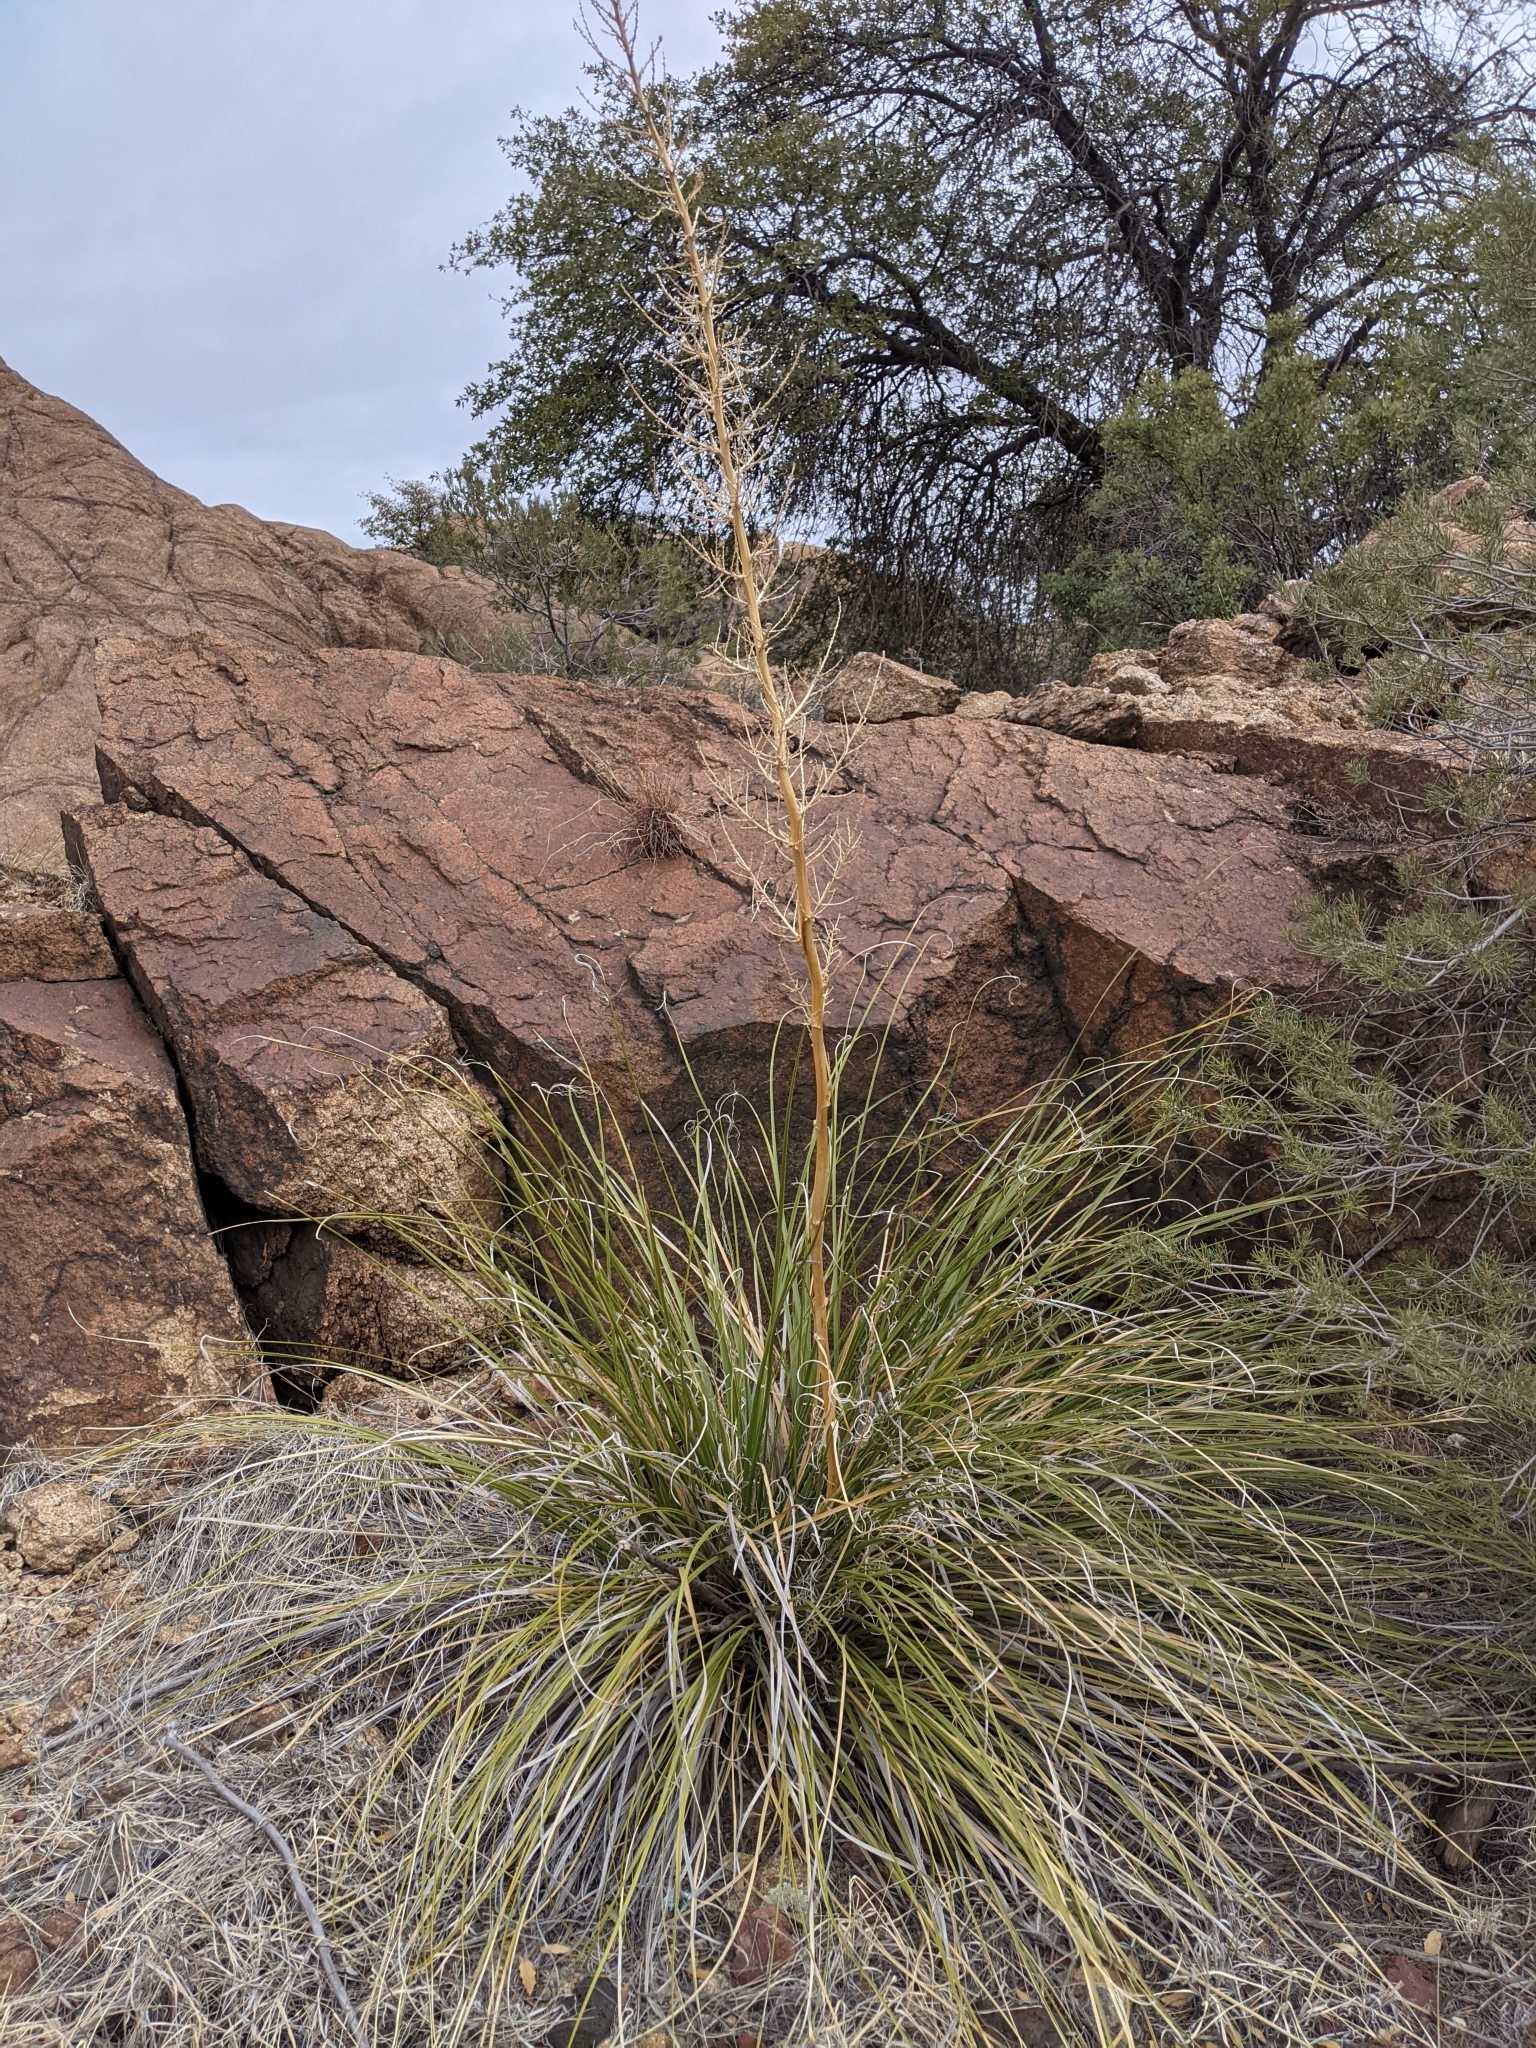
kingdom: Plantae
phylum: Tracheophyta
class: Liliopsida
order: Asparagales
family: Asparagaceae
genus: Nolina
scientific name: Nolina microcarpa
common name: Bear-grass
